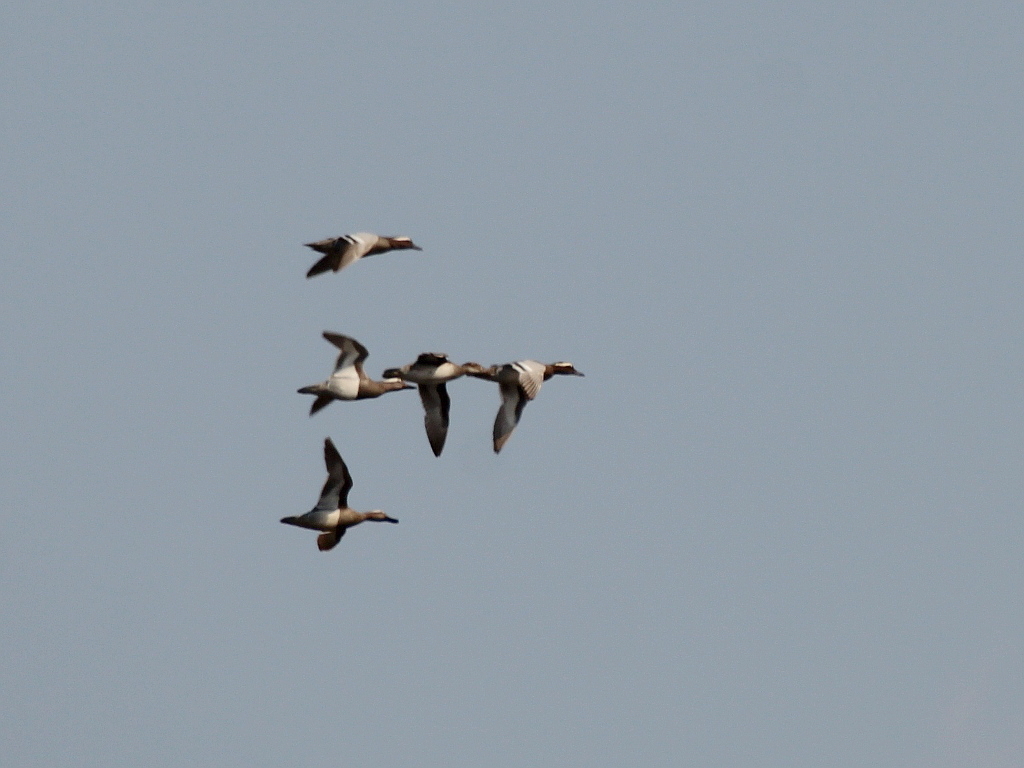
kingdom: Animalia
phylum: Chordata
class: Aves
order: Anseriformes
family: Anatidae
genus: Spatula
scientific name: Spatula querquedula
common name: Garganey
